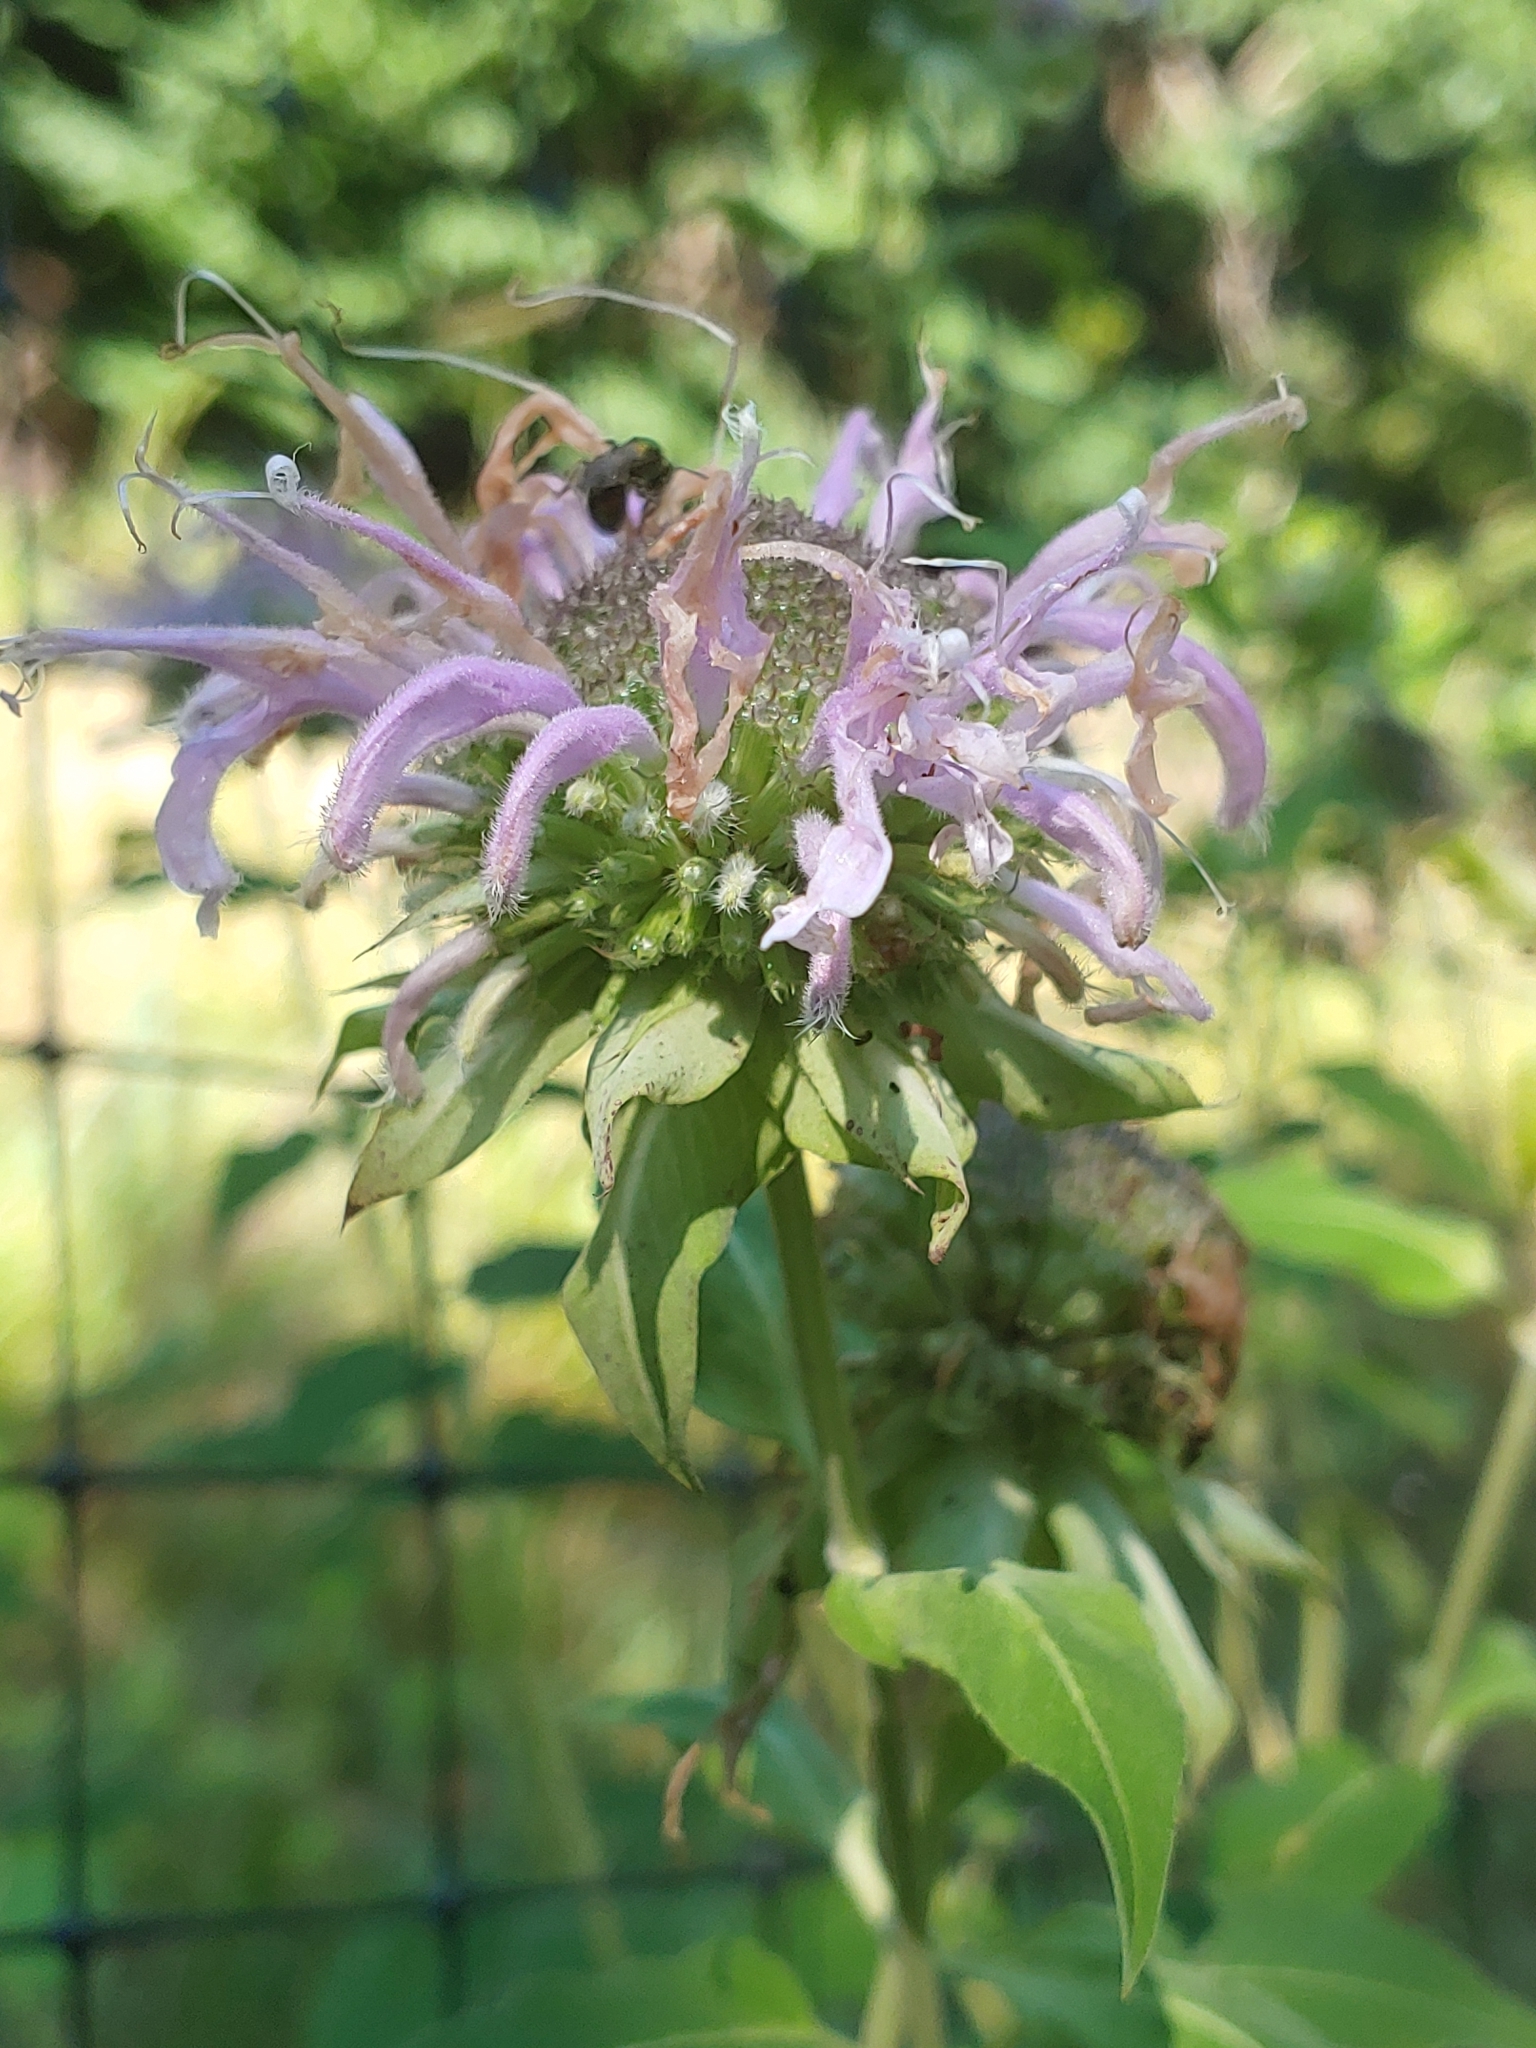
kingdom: Plantae
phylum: Tracheophyta
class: Magnoliopsida
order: Lamiales
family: Lamiaceae
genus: Monarda
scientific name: Monarda fistulosa
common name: Purple beebalm
